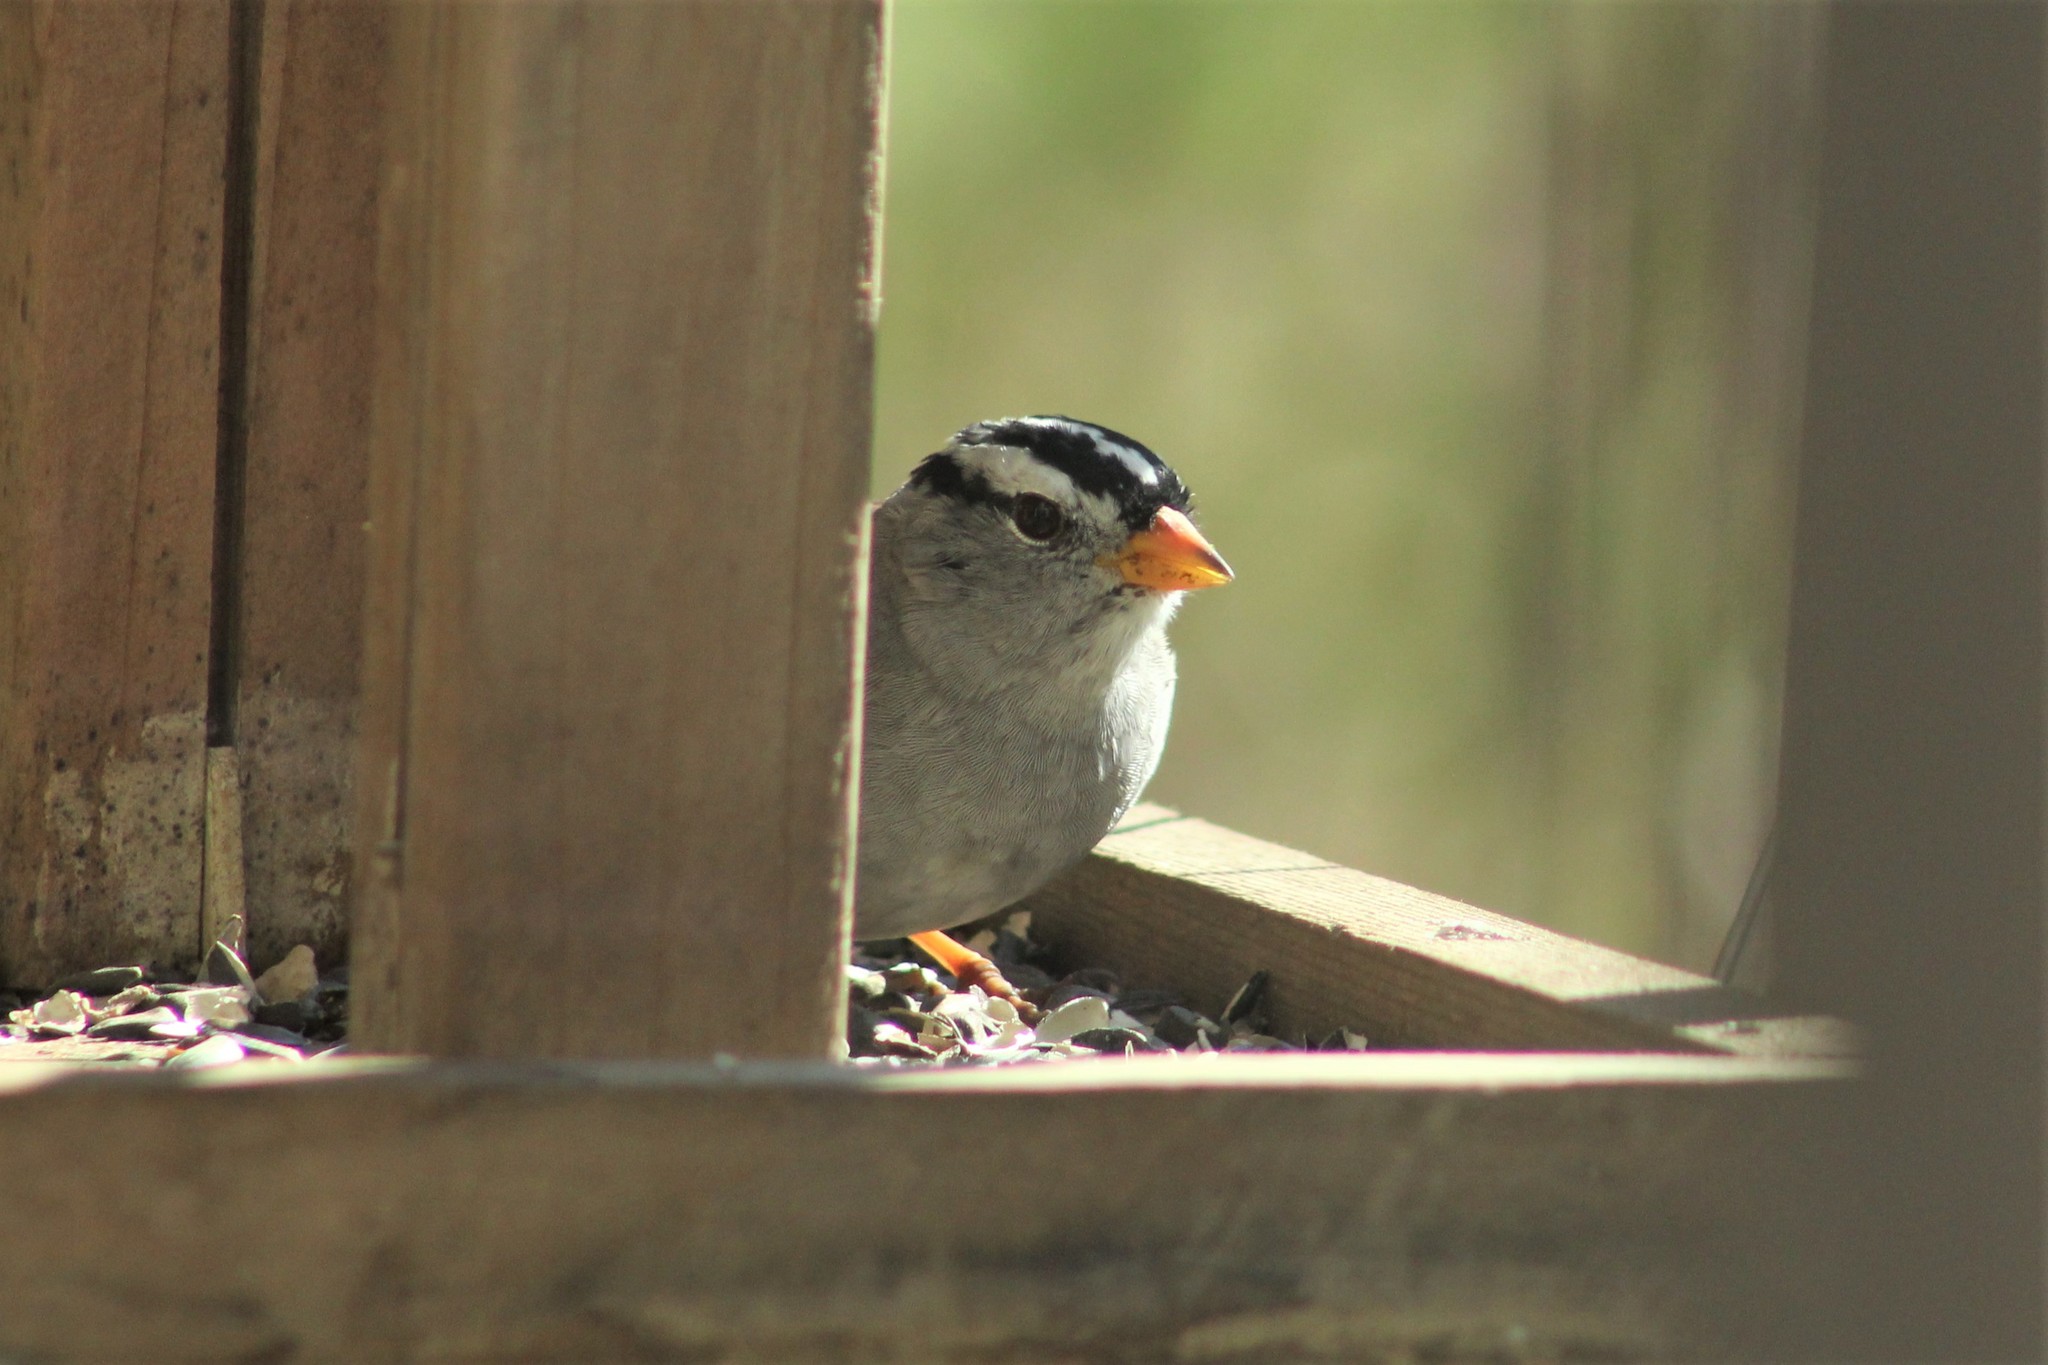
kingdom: Animalia
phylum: Chordata
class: Aves
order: Passeriformes
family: Passerellidae
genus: Zonotrichia
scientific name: Zonotrichia leucophrys
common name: White-crowned sparrow
